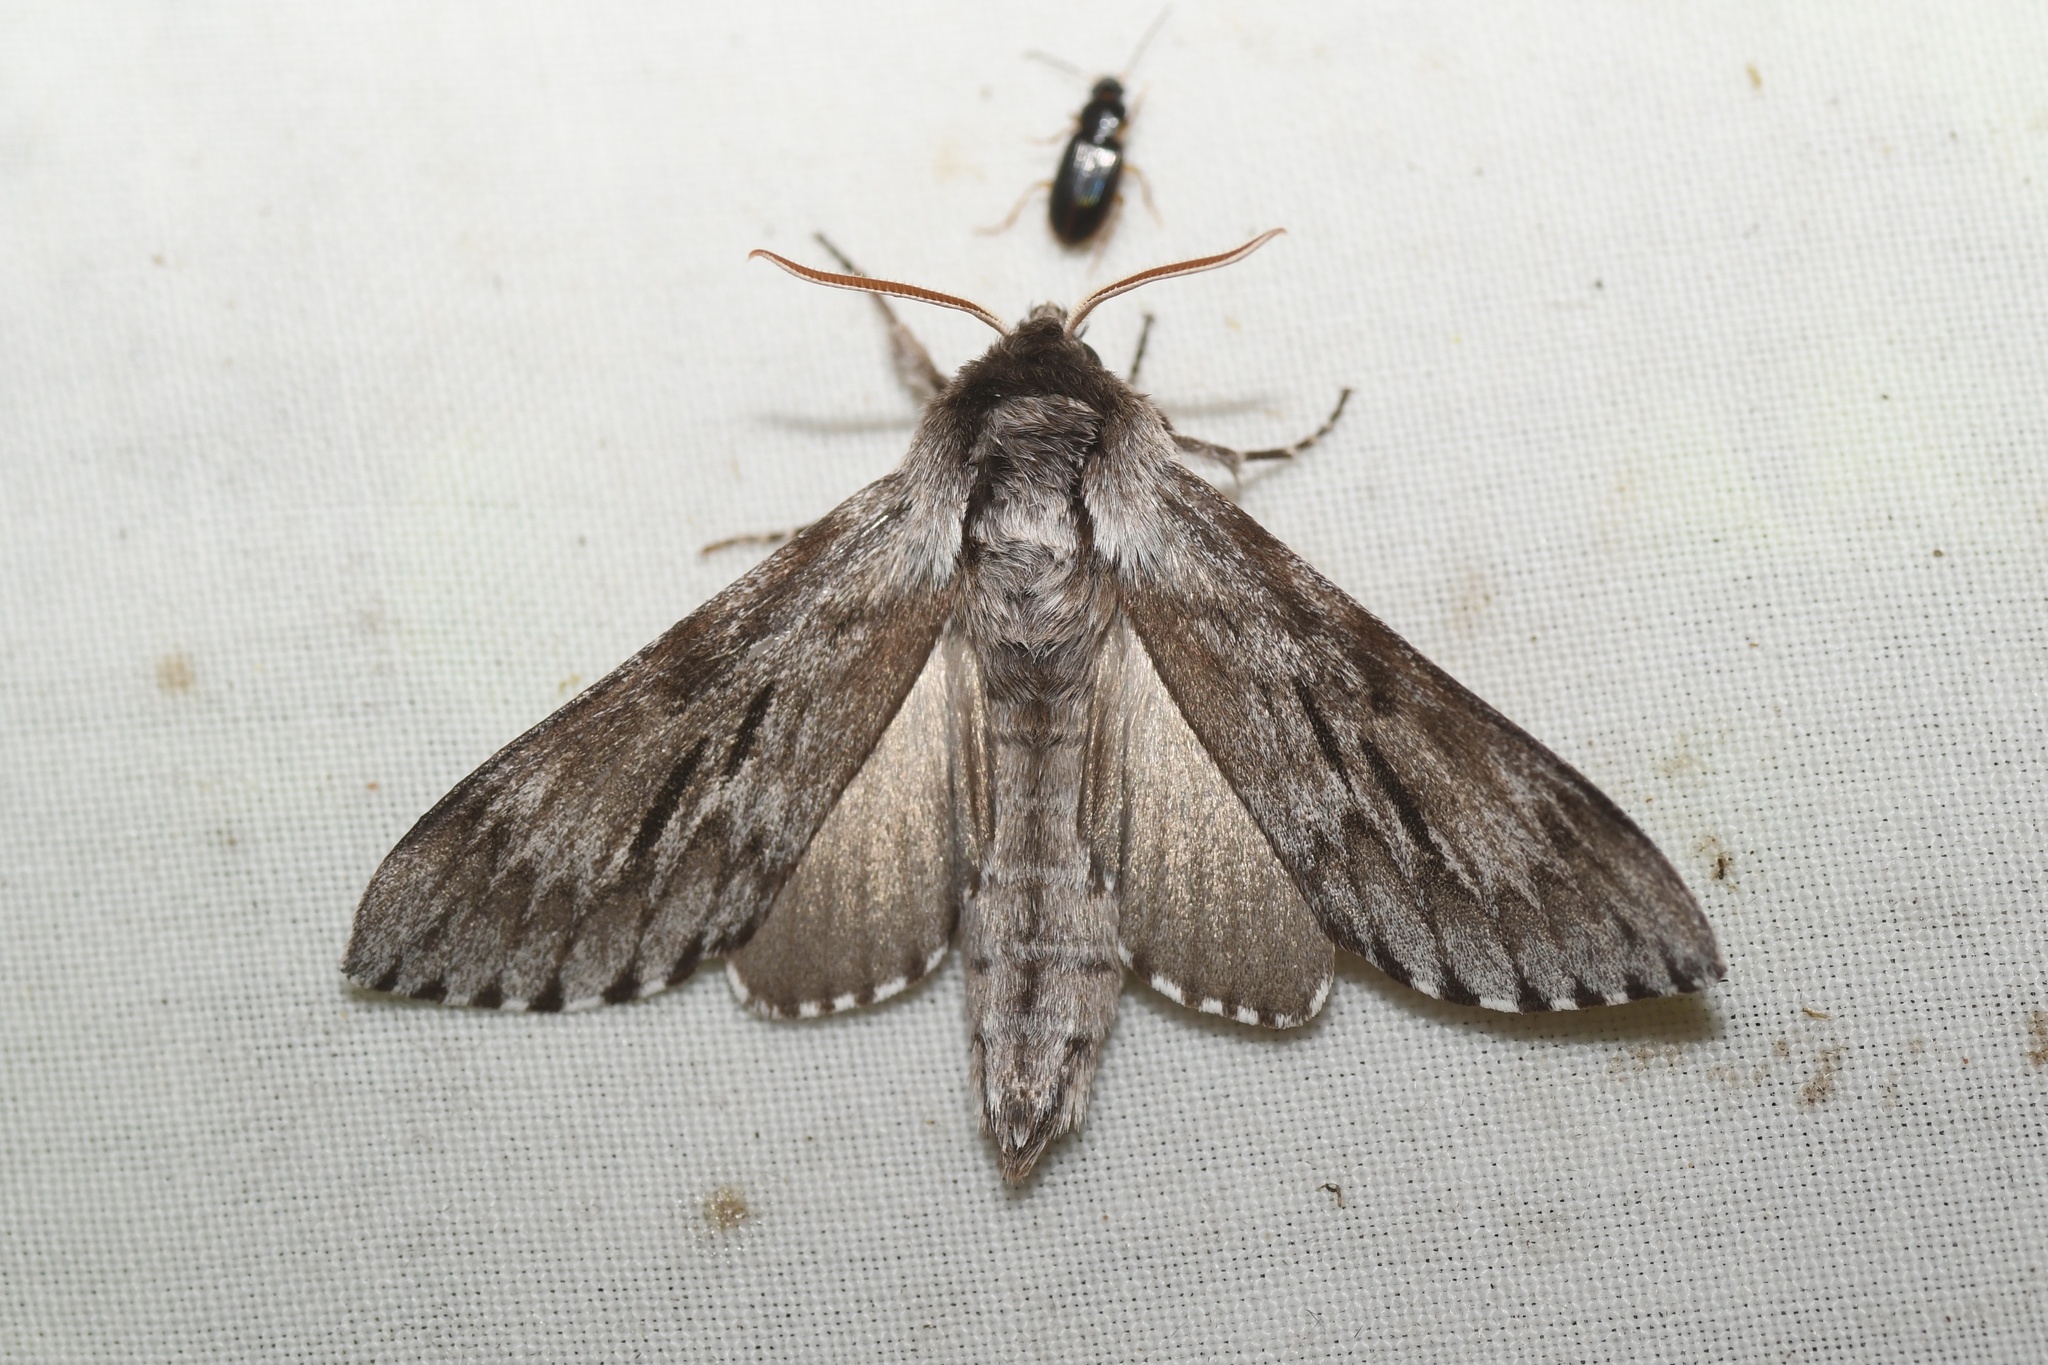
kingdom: Animalia
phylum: Arthropoda
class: Insecta
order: Lepidoptera
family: Sphingidae
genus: Lapara
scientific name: Lapara bombycoides
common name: Northern pine sphinx
